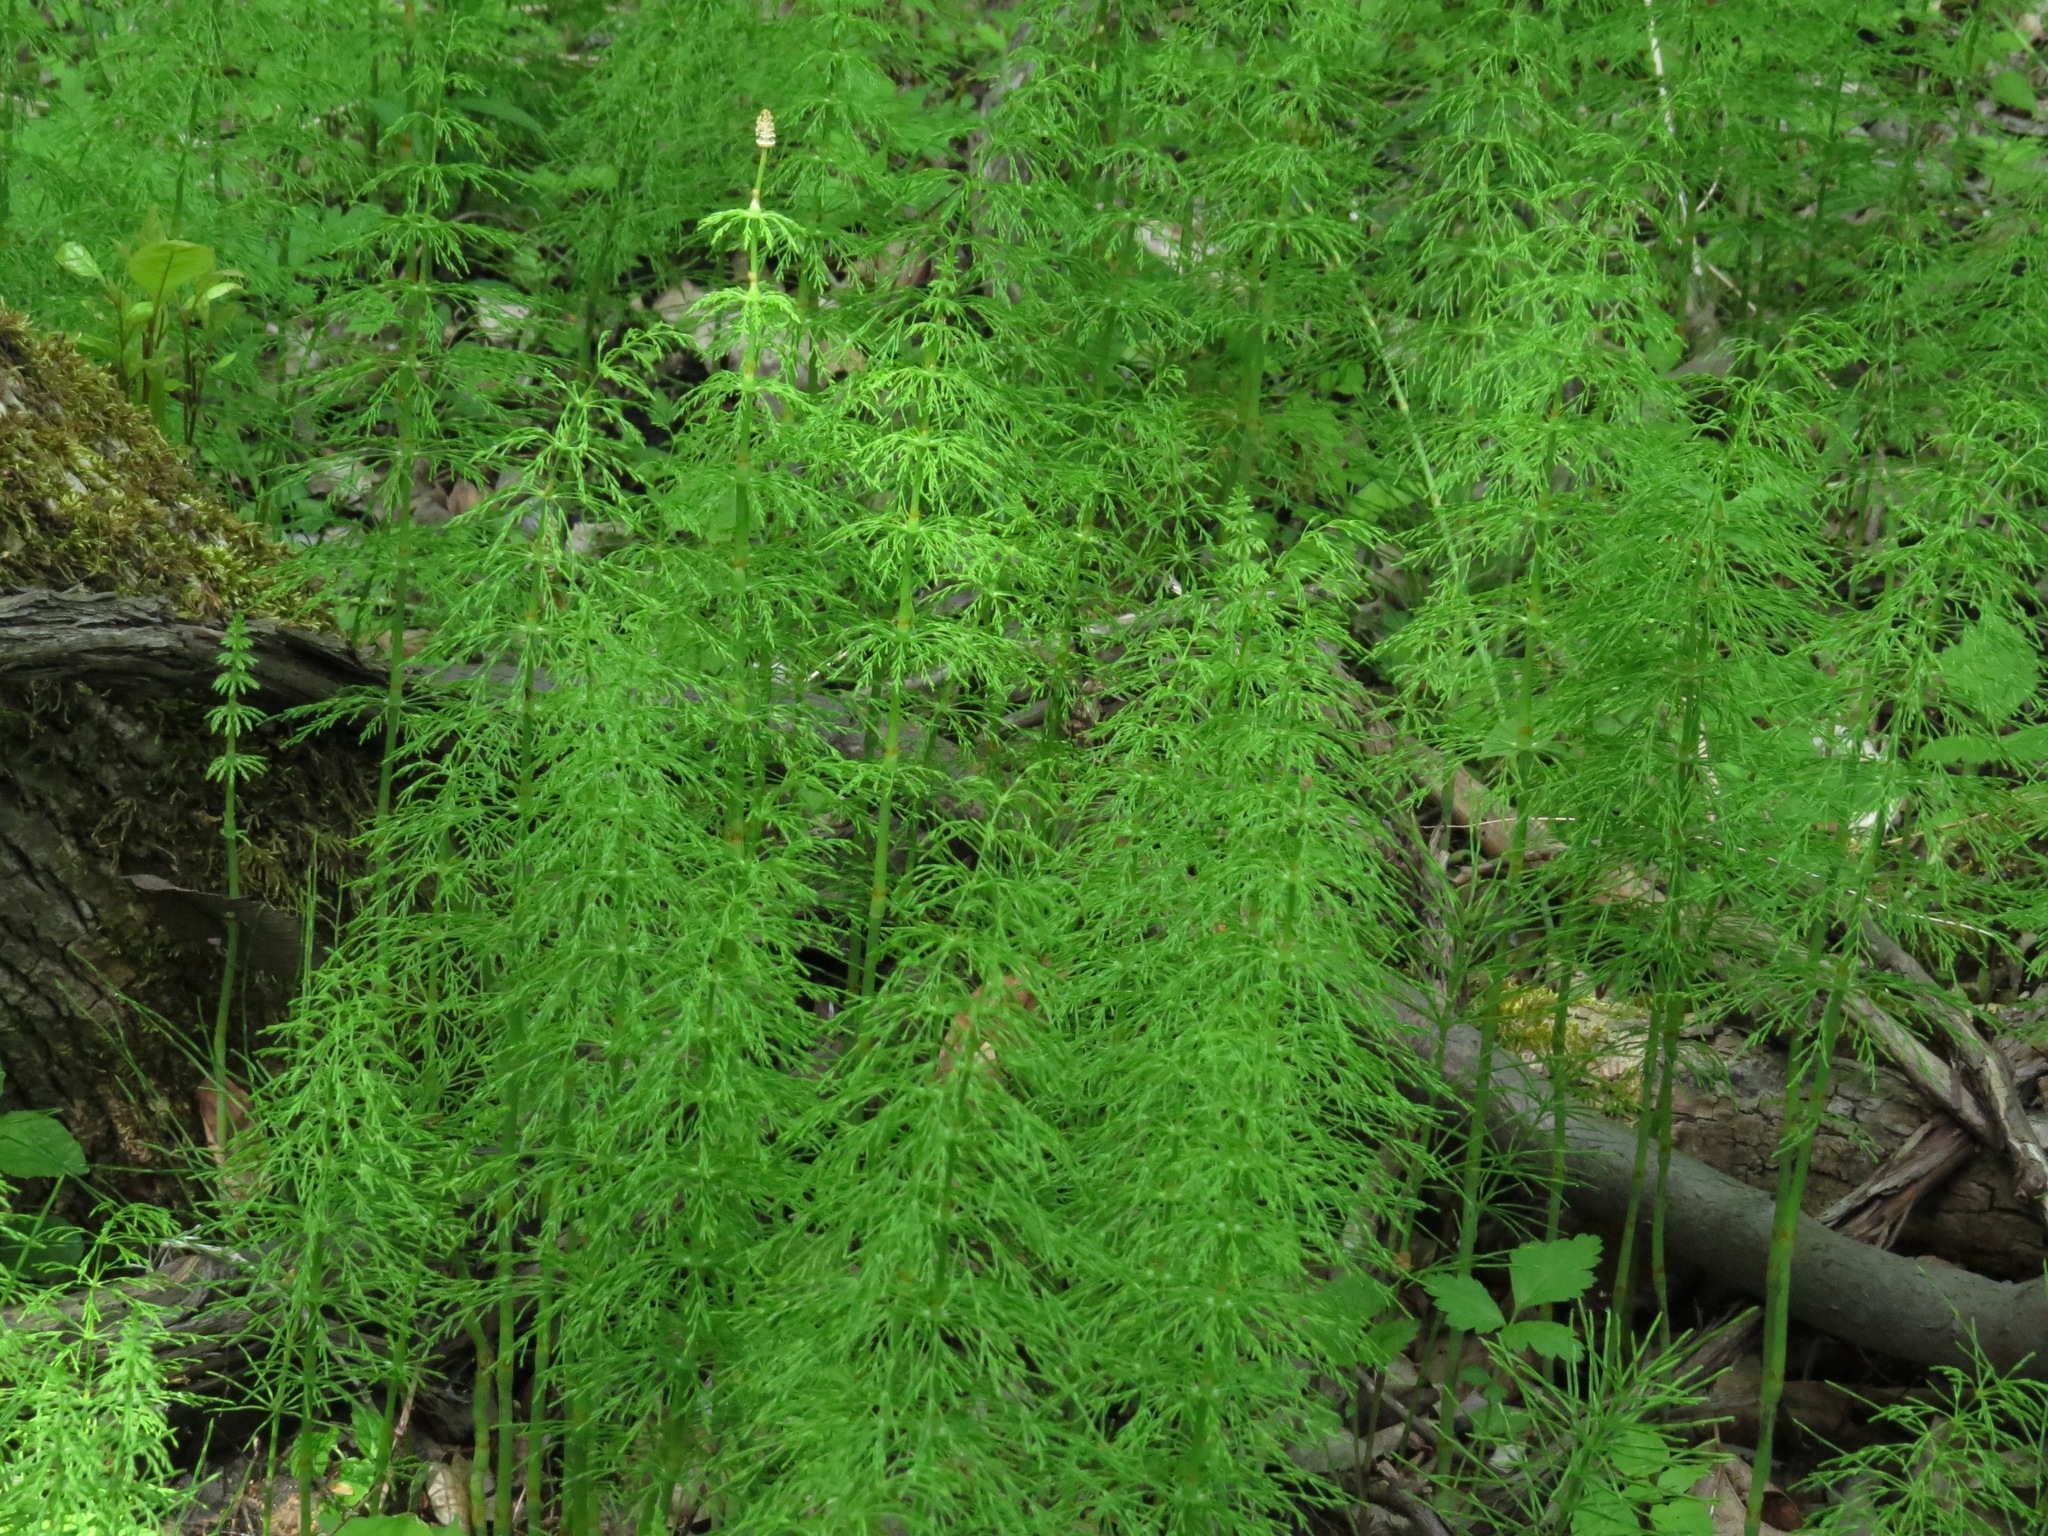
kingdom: Plantae
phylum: Tracheophyta
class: Polypodiopsida
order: Equisetales
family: Equisetaceae
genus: Equisetum
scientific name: Equisetum sylvaticum
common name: Wood horsetail
